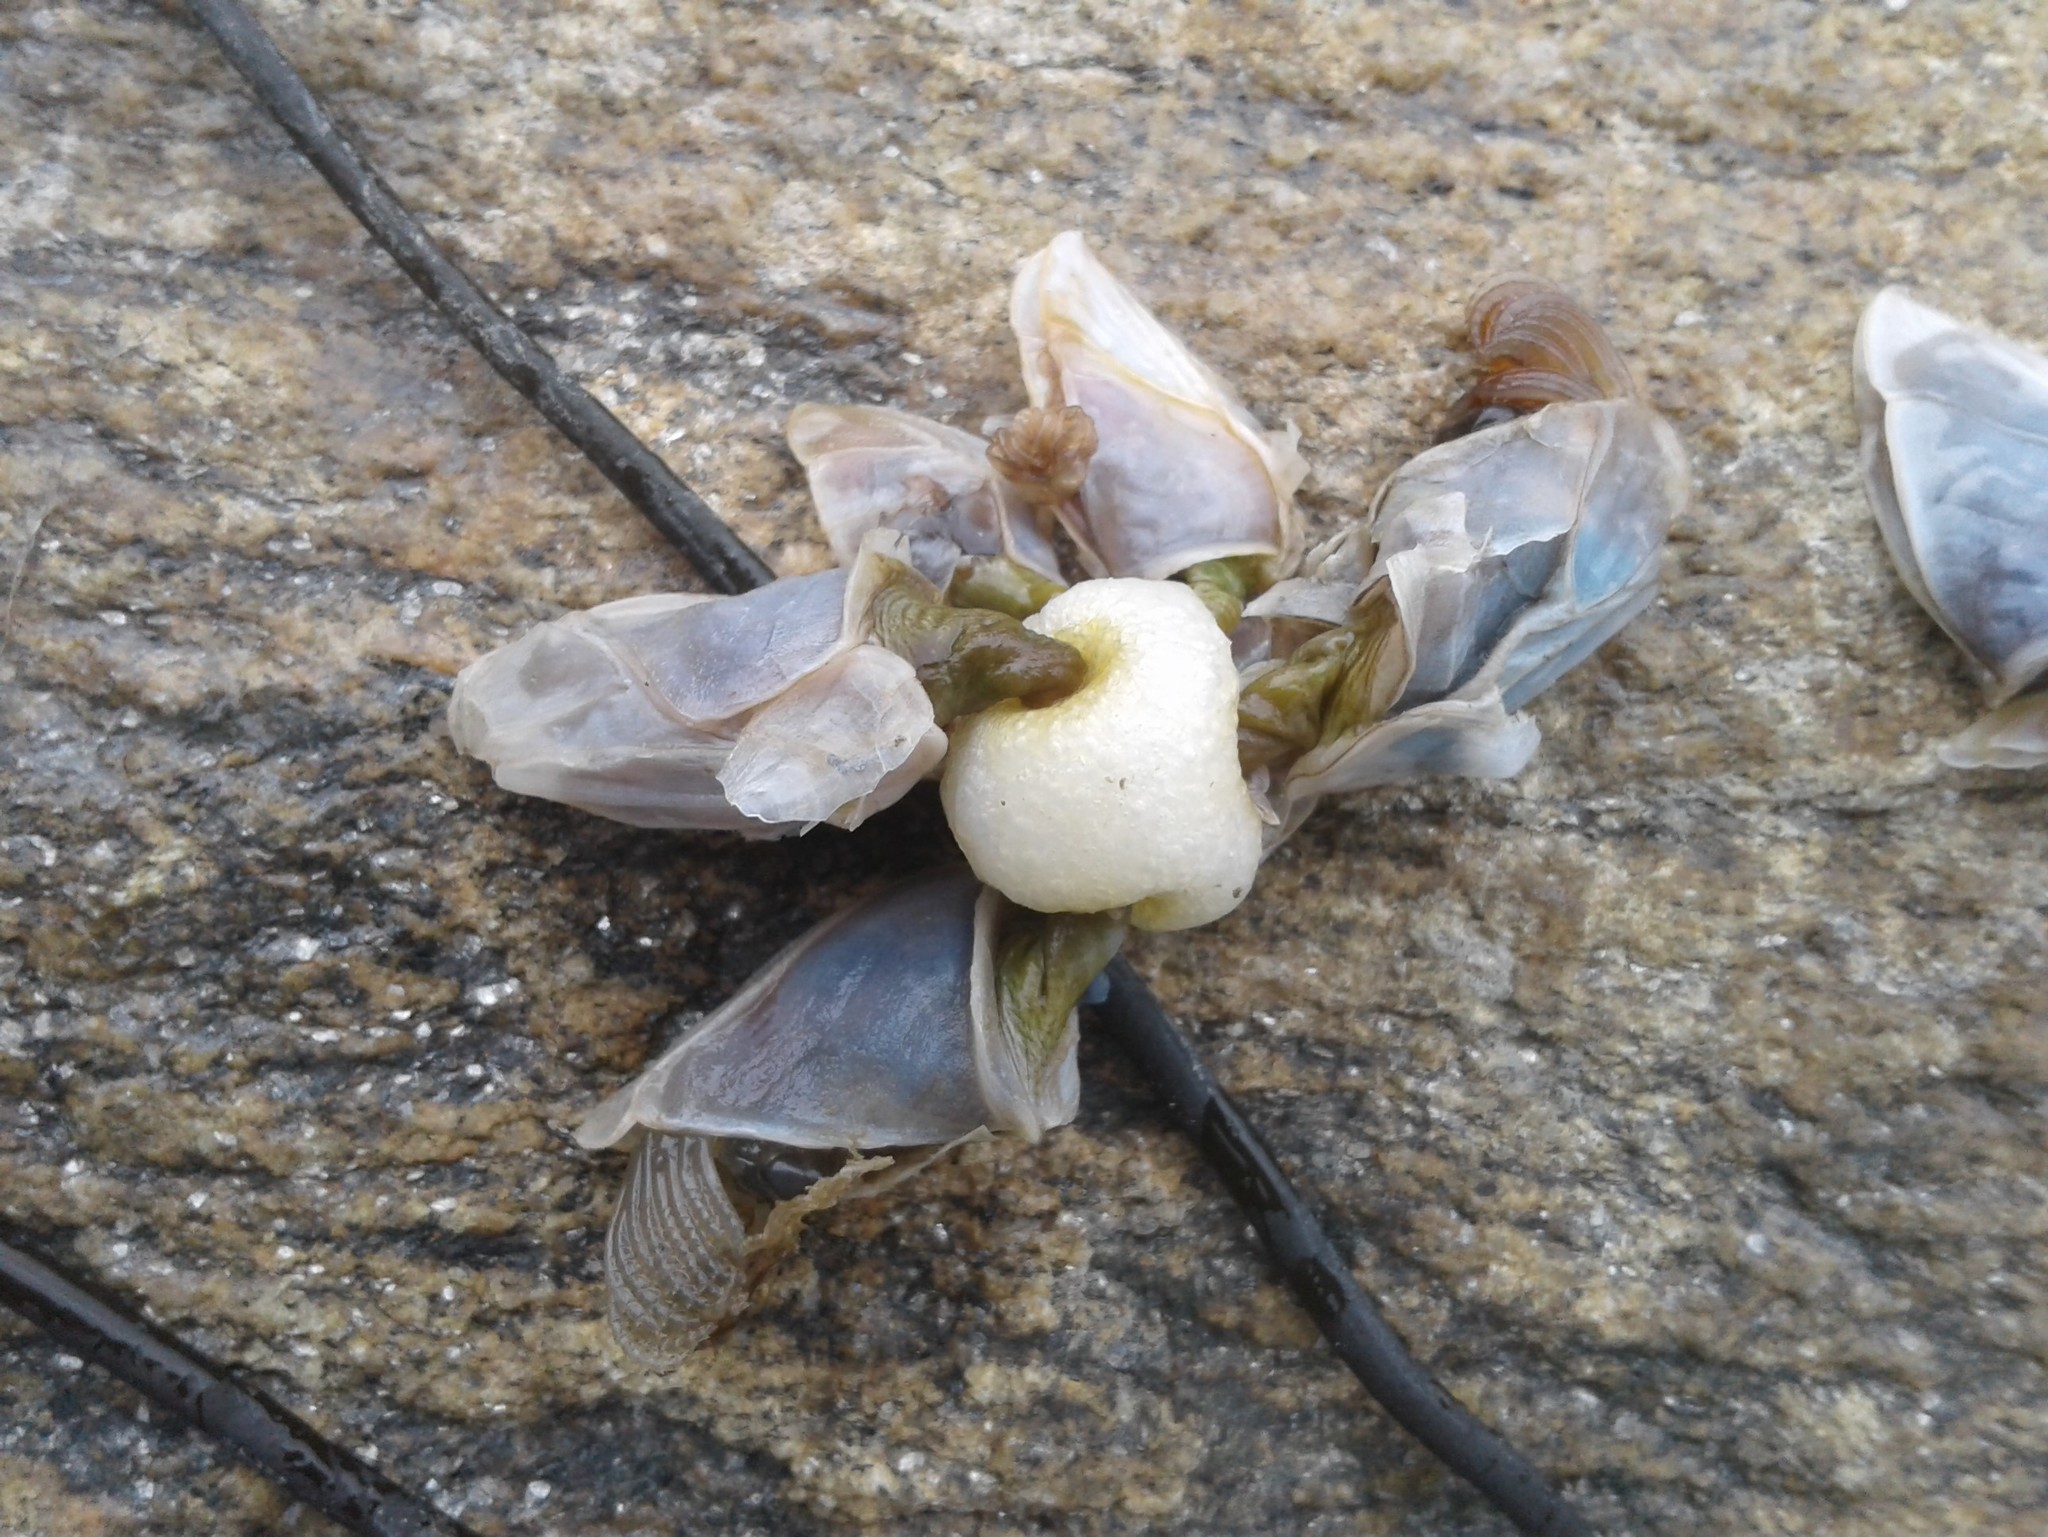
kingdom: Animalia
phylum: Arthropoda
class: Maxillopoda
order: Pedunculata
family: Lepadidae
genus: Dosima
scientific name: Dosima fascicularis
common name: Buoy barnacle
